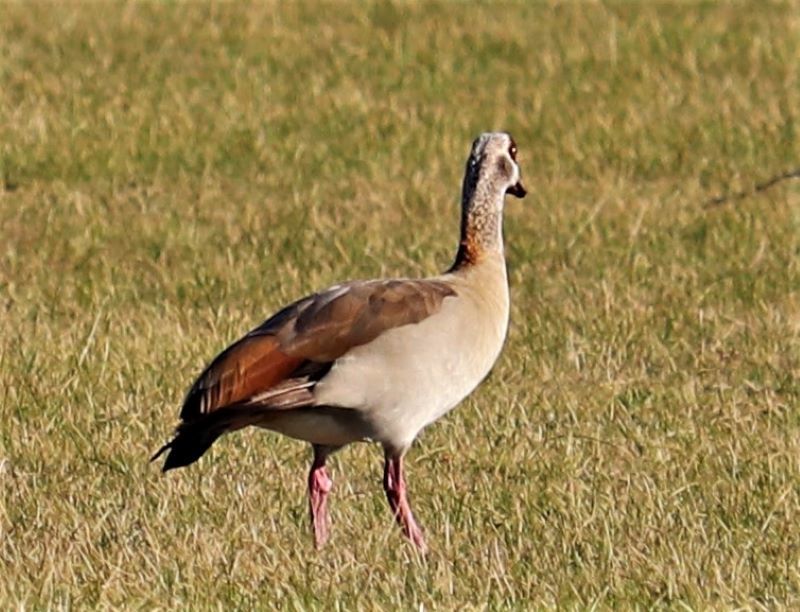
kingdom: Animalia
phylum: Chordata
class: Aves
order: Anseriformes
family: Anatidae
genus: Alopochen
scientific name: Alopochen aegyptiaca
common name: Egyptian goose
